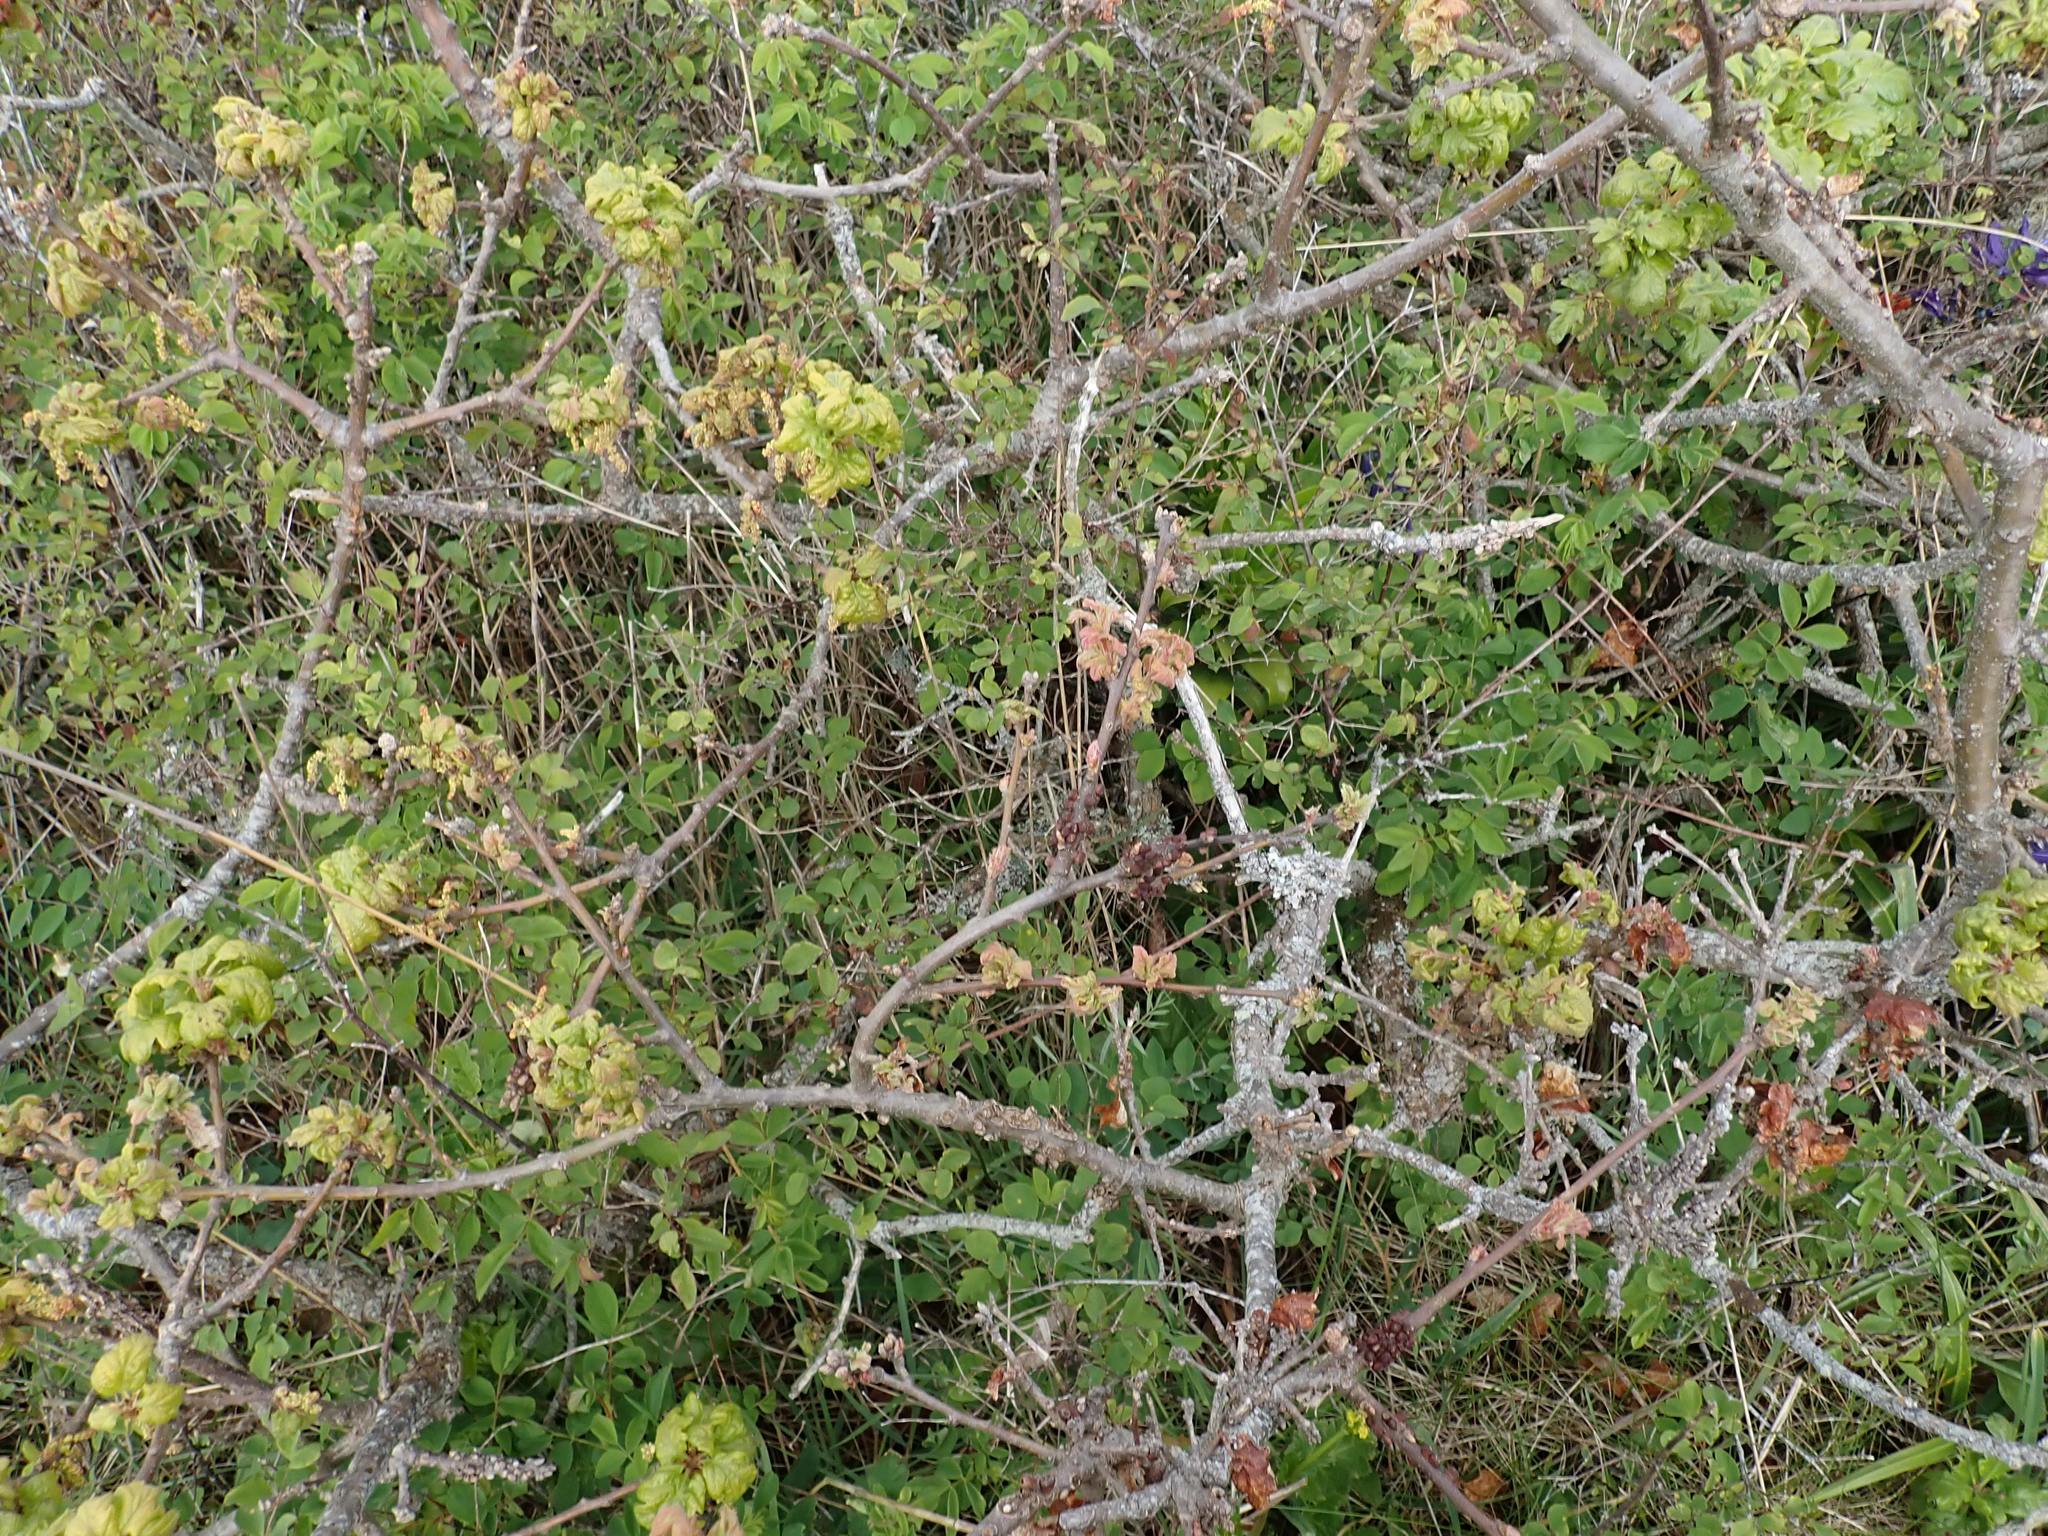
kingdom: Animalia
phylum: Arthropoda
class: Insecta
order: Hymenoptera
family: Cynipidae
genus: Disholcaspis
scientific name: Disholcaspis
